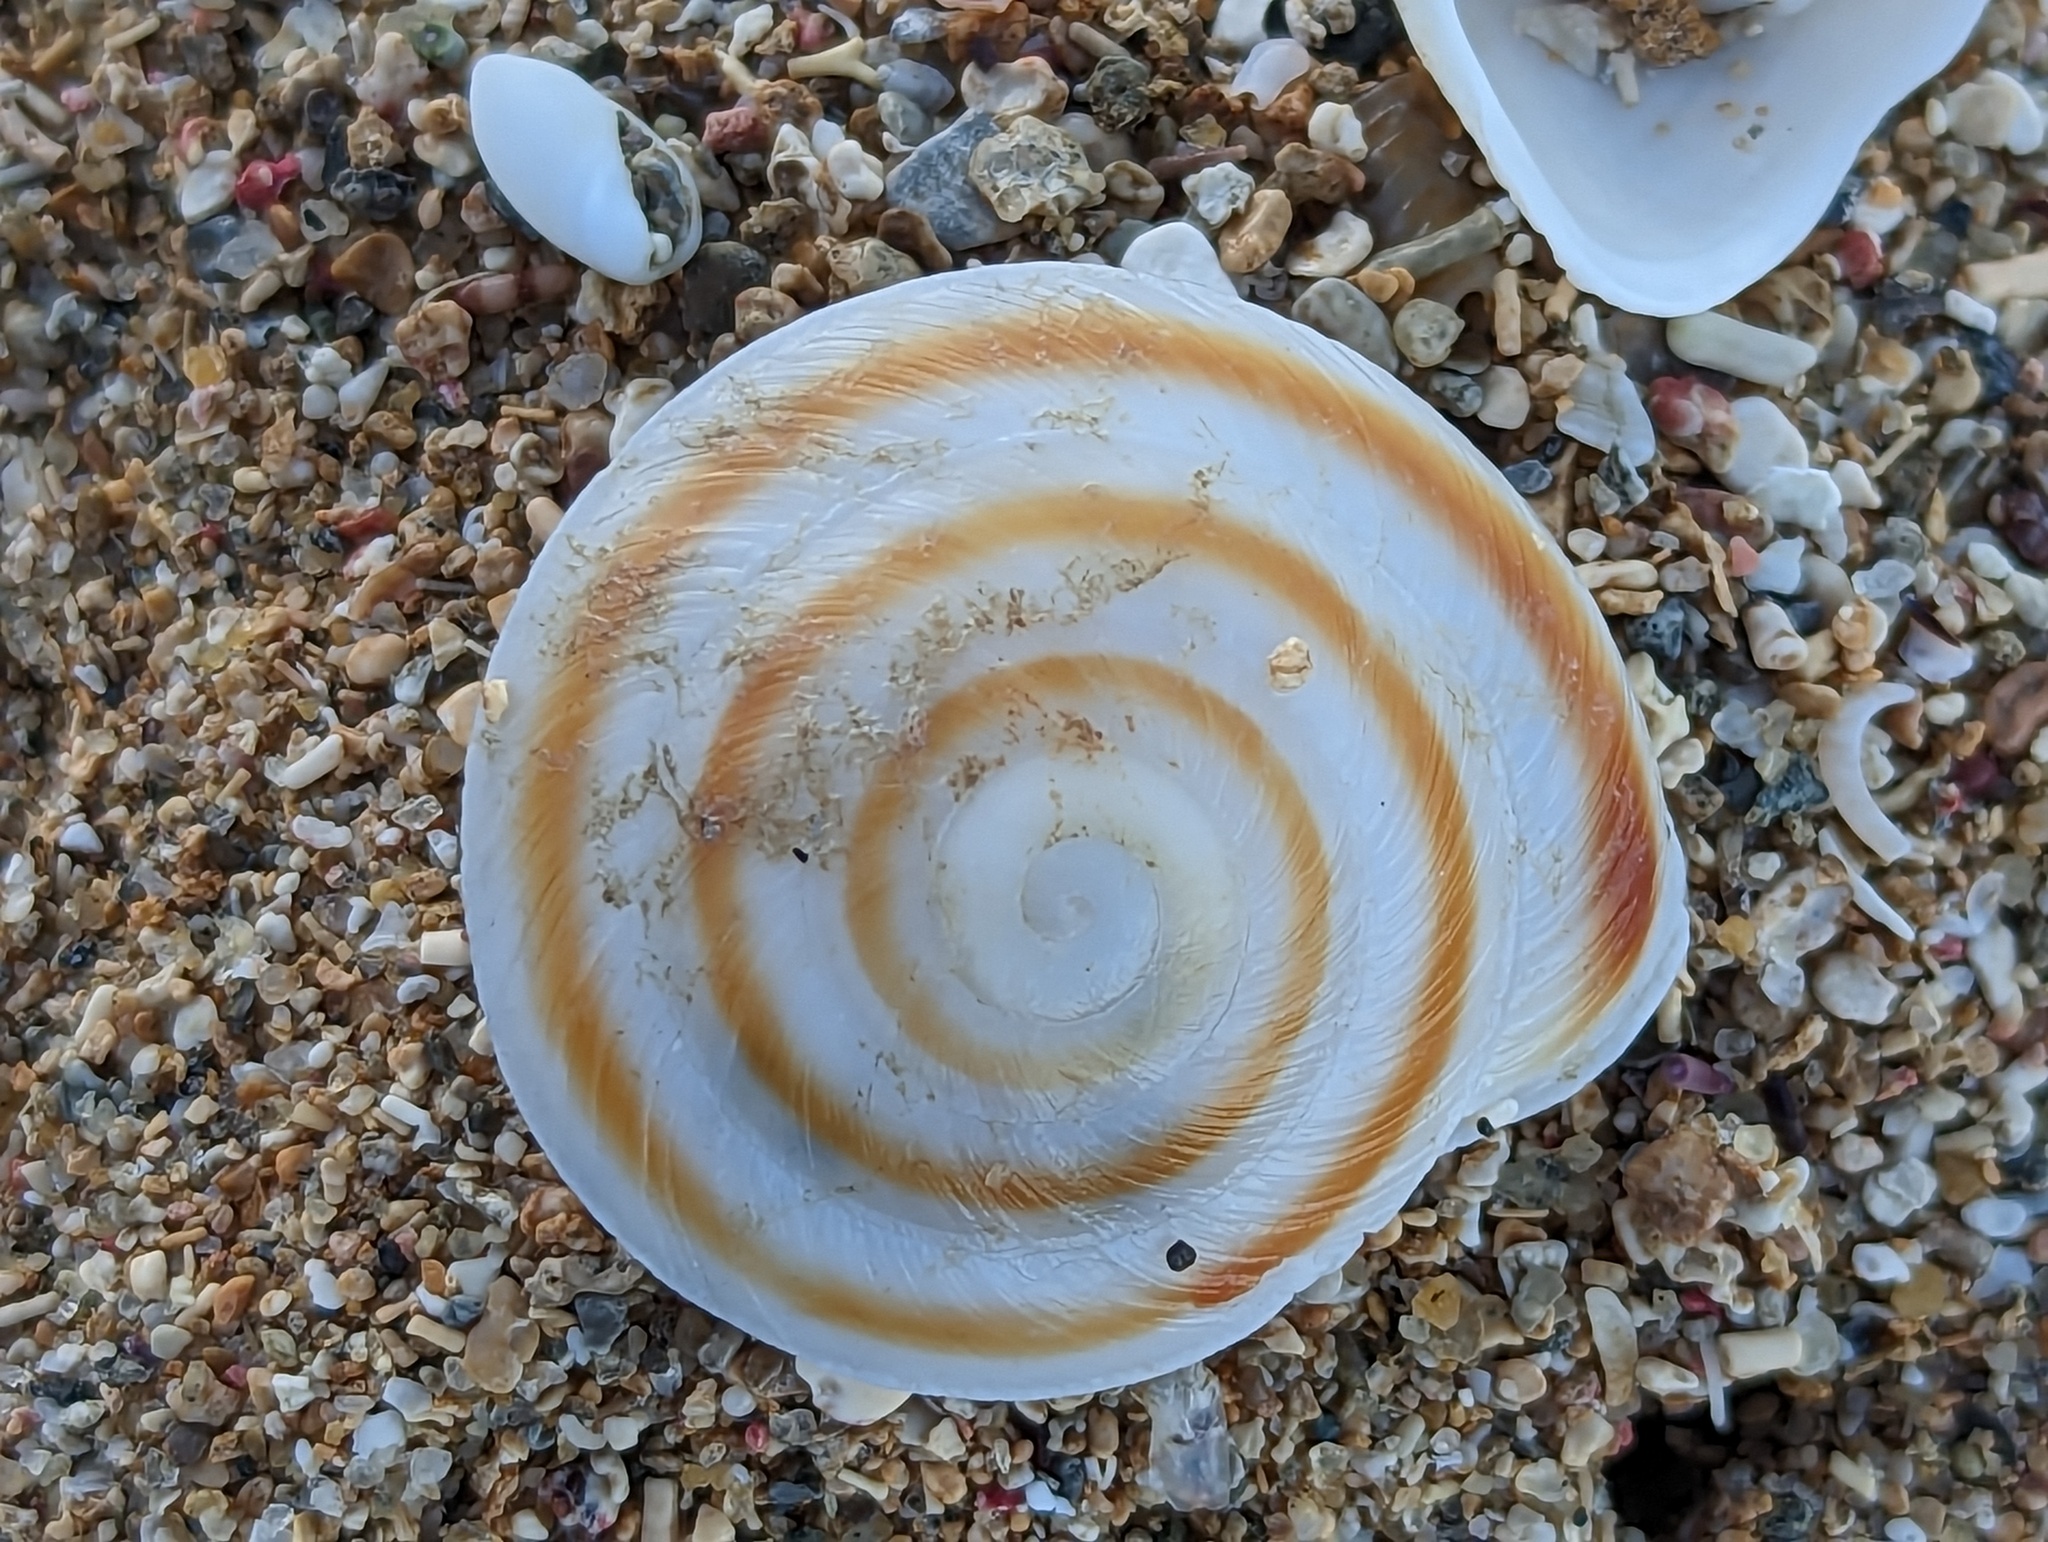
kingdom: Animalia
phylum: Mollusca
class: Gastropoda
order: Stylommatophora
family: Solaropsidae
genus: Caracolus
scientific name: Caracolus marginella
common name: Banded caracol
